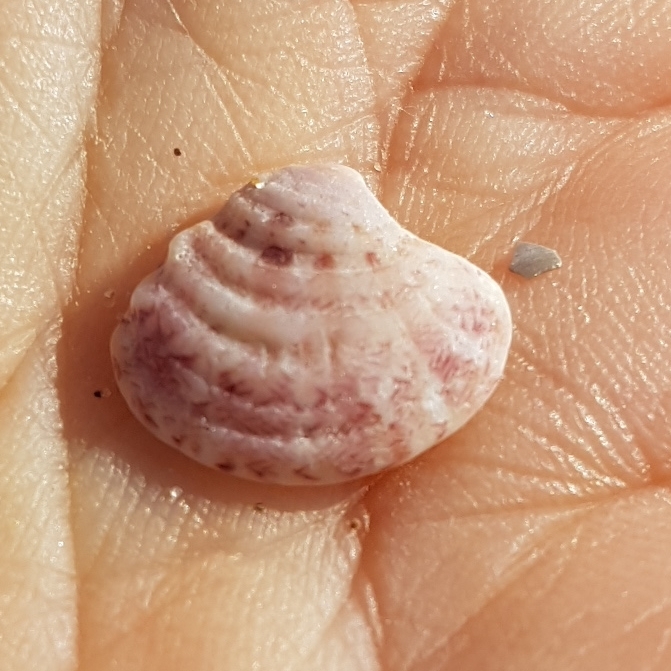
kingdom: Animalia
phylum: Mollusca
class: Bivalvia
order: Venerida
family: Veneridae
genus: Clausinella
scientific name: Clausinella fasciata
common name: Banded venus
